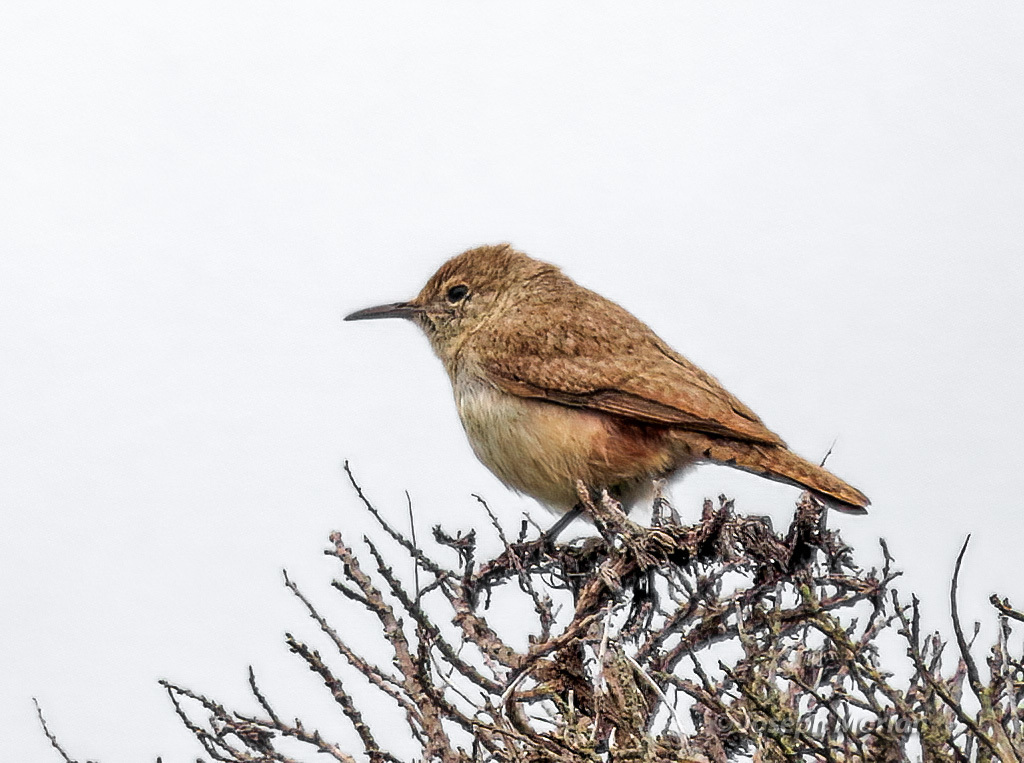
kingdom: Animalia
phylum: Chordata
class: Aves
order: Passeriformes
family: Troglodytidae
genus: Salpinctes
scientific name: Salpinctes obsoletus
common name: Rock wren
